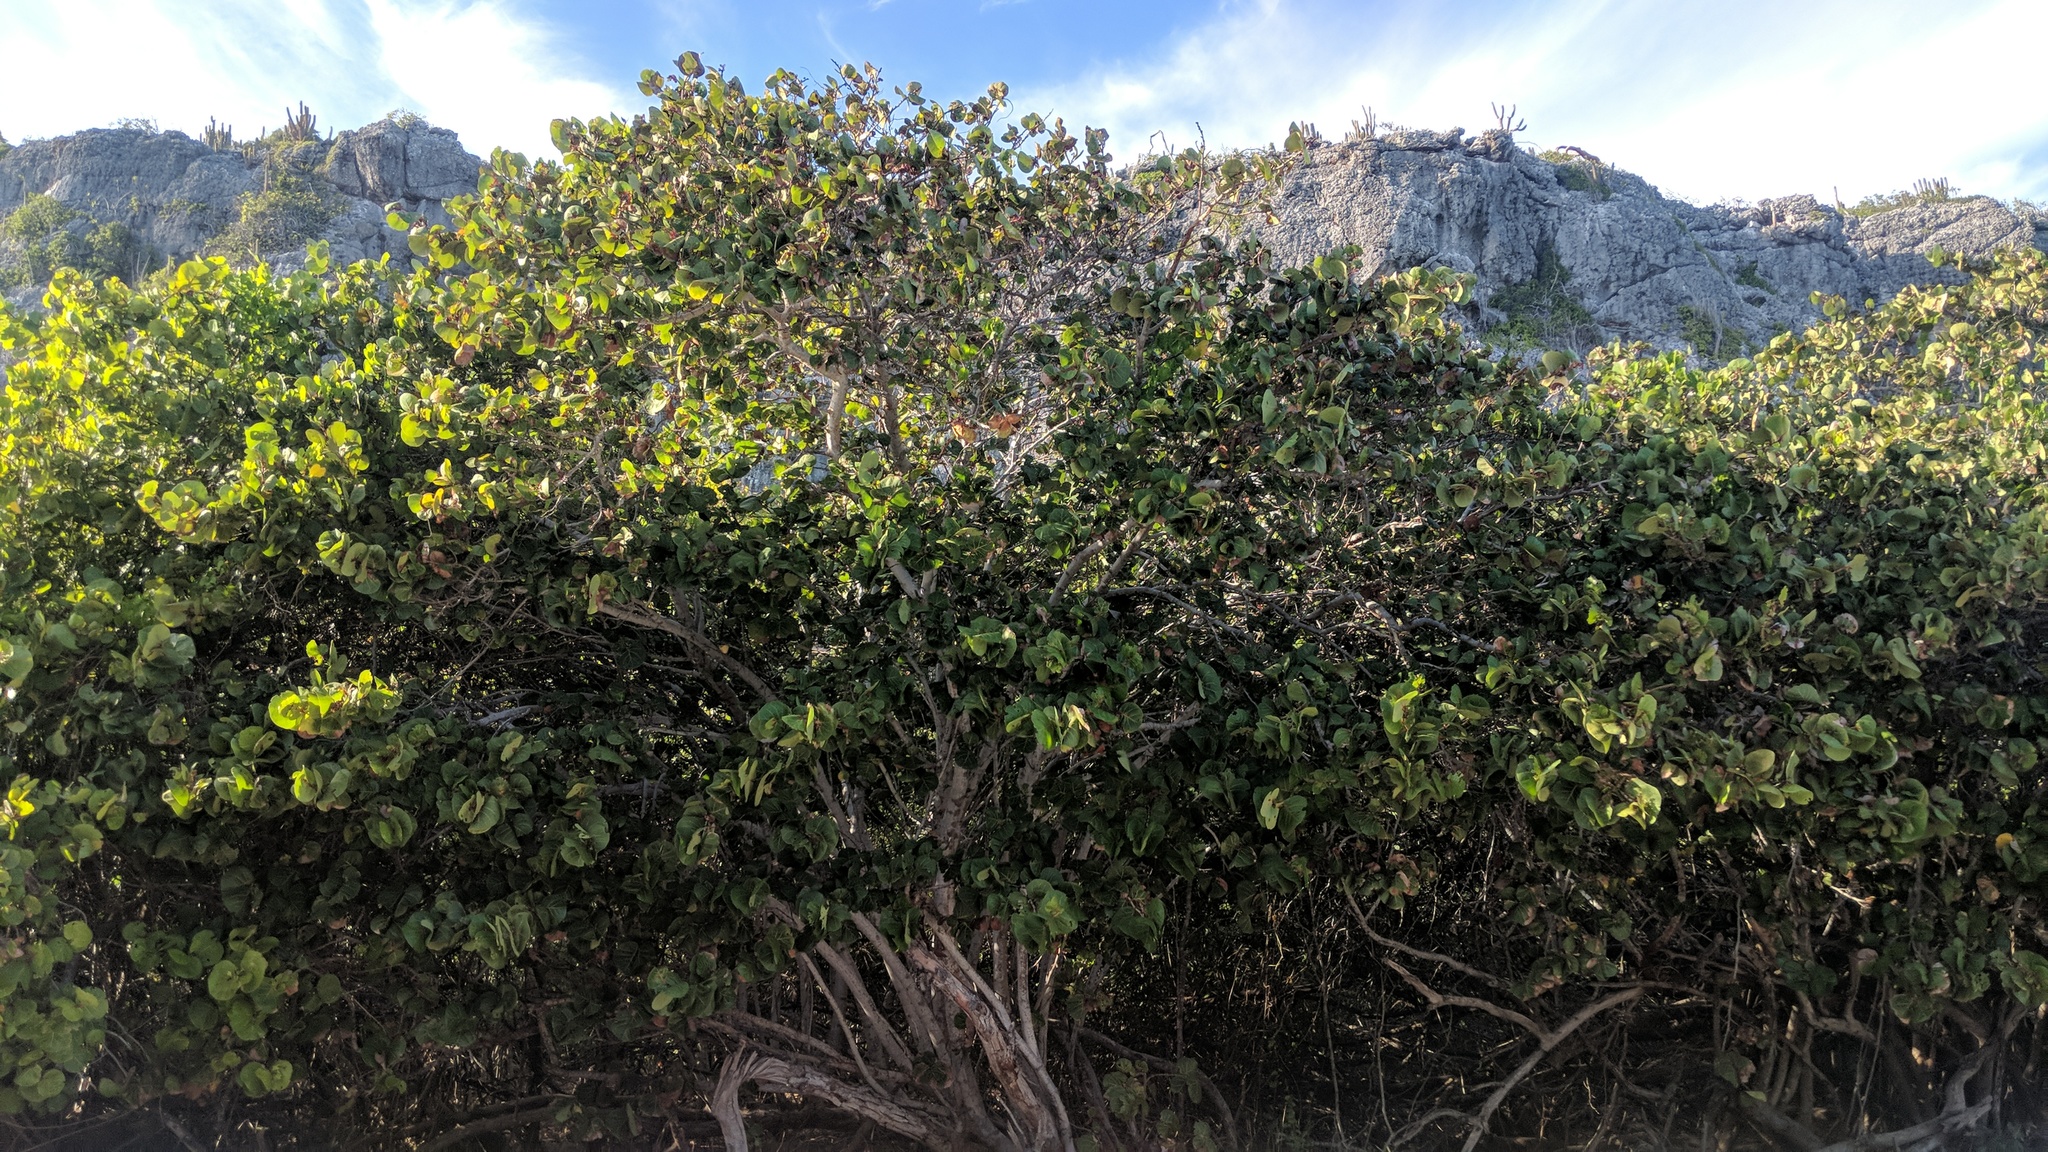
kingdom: Plantae
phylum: Tracheophyta
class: Magnoliopsida
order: Caryophyllales
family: Polygonaceae
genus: Coccoloba
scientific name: Coccoloba uvifera
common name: Seagrape
